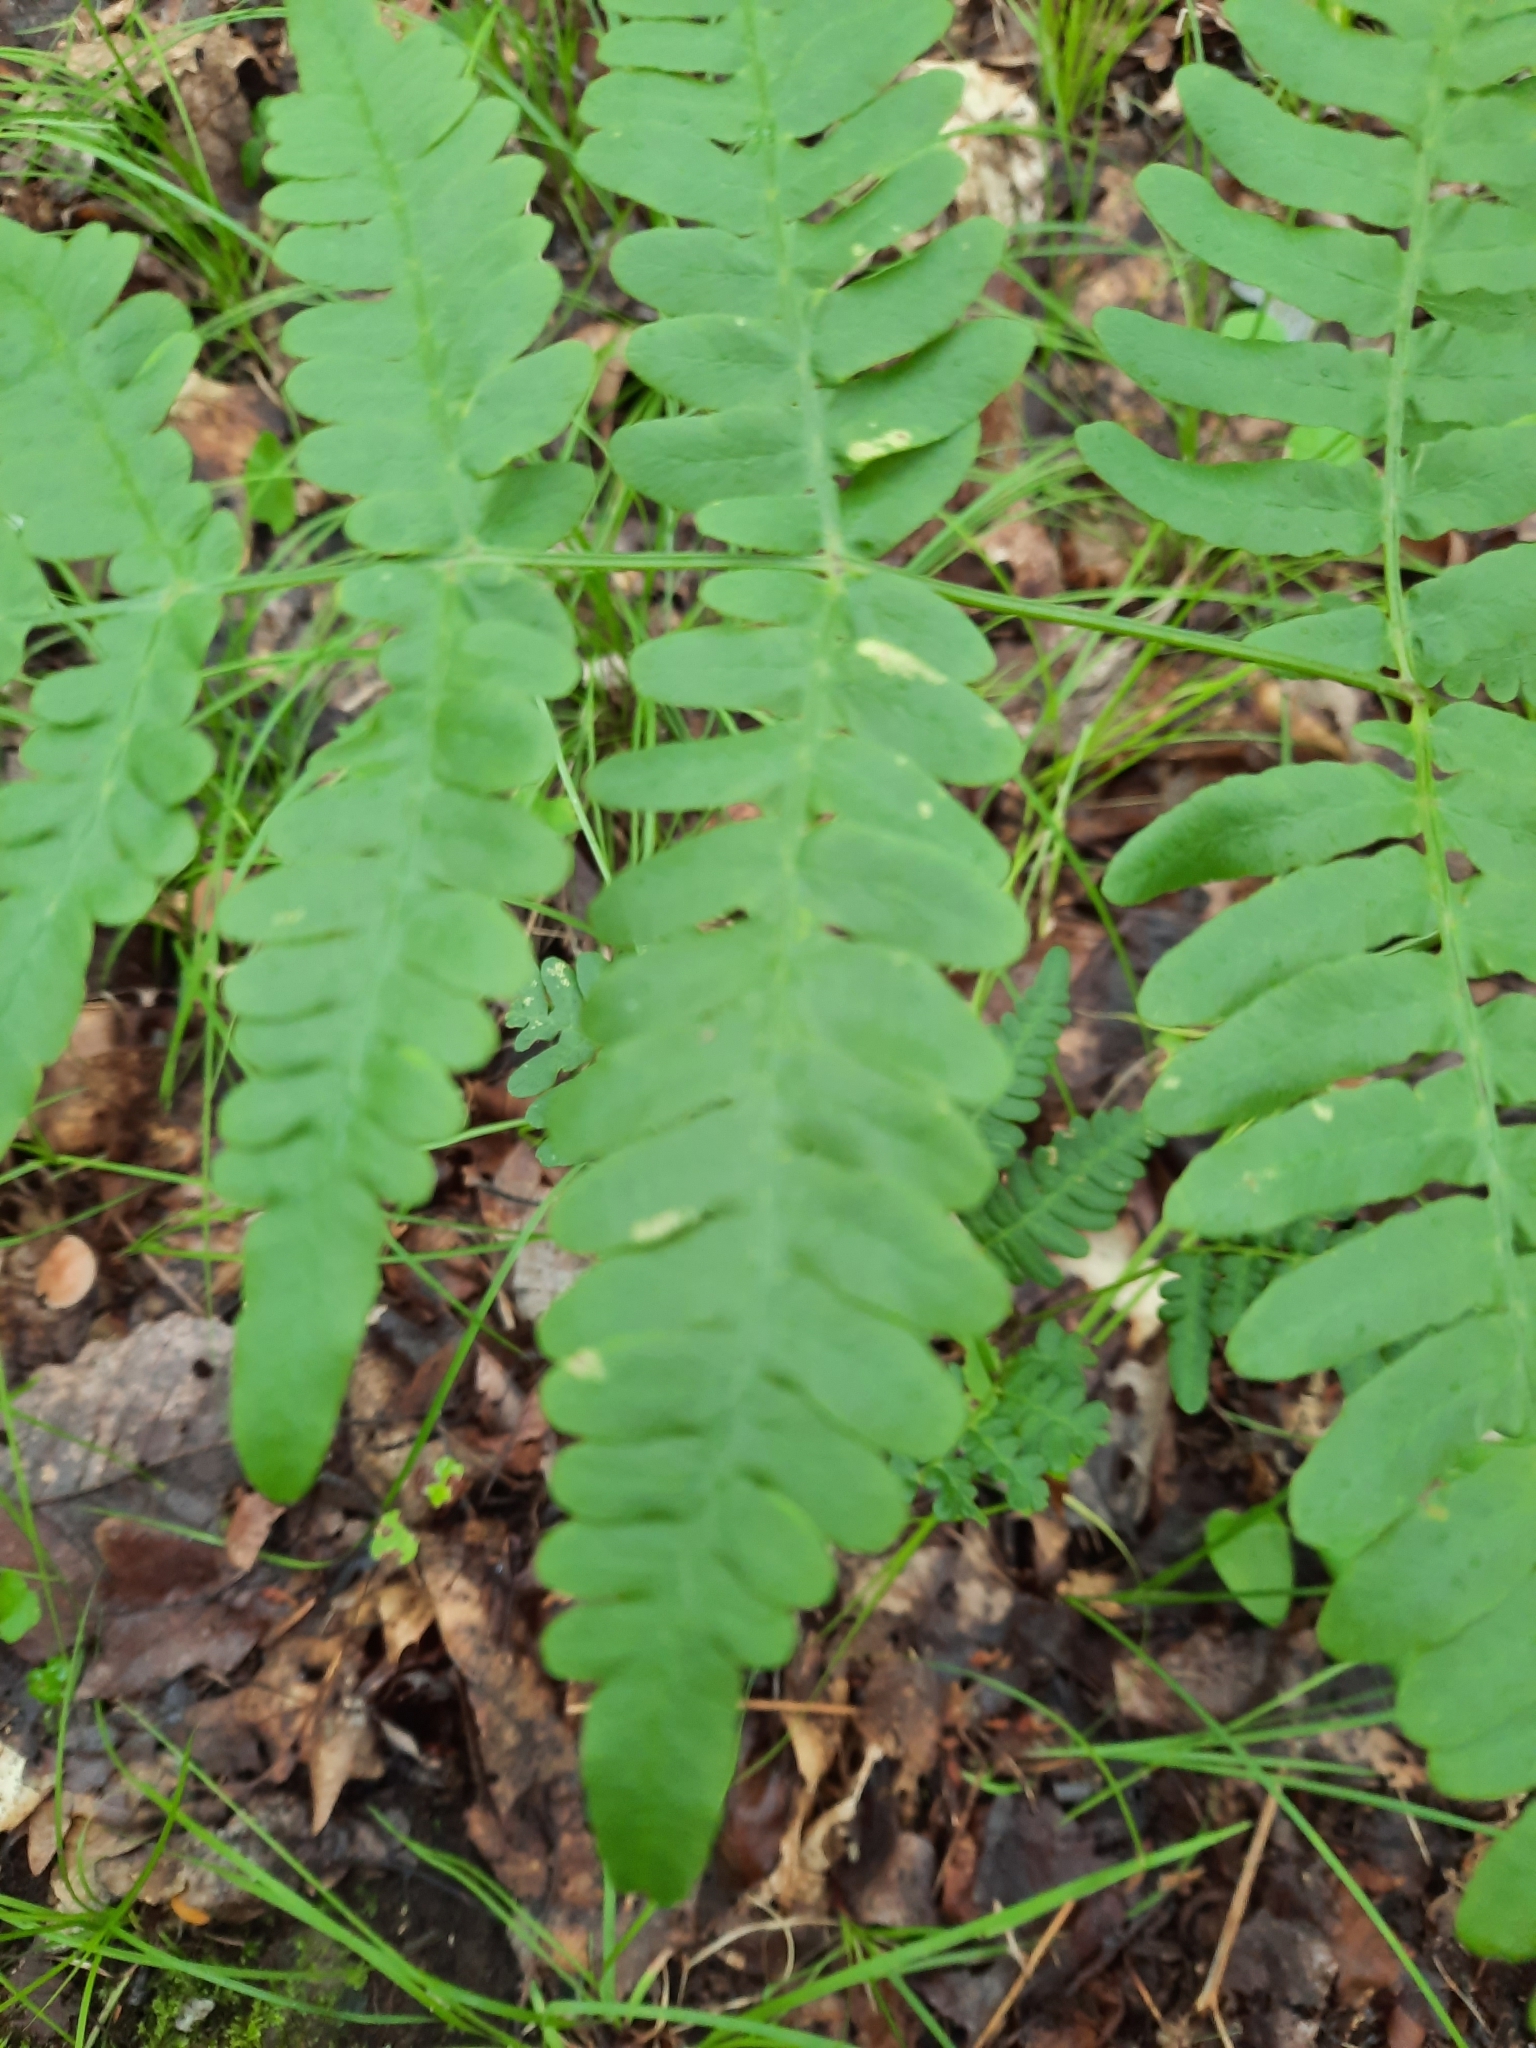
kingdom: Plantae
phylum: Tracheophyta
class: Polypodiopsida
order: Polypodiales
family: Dennstaedtiaceae
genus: Pteridium
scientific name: Pteridium aquilinum
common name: Bracken
